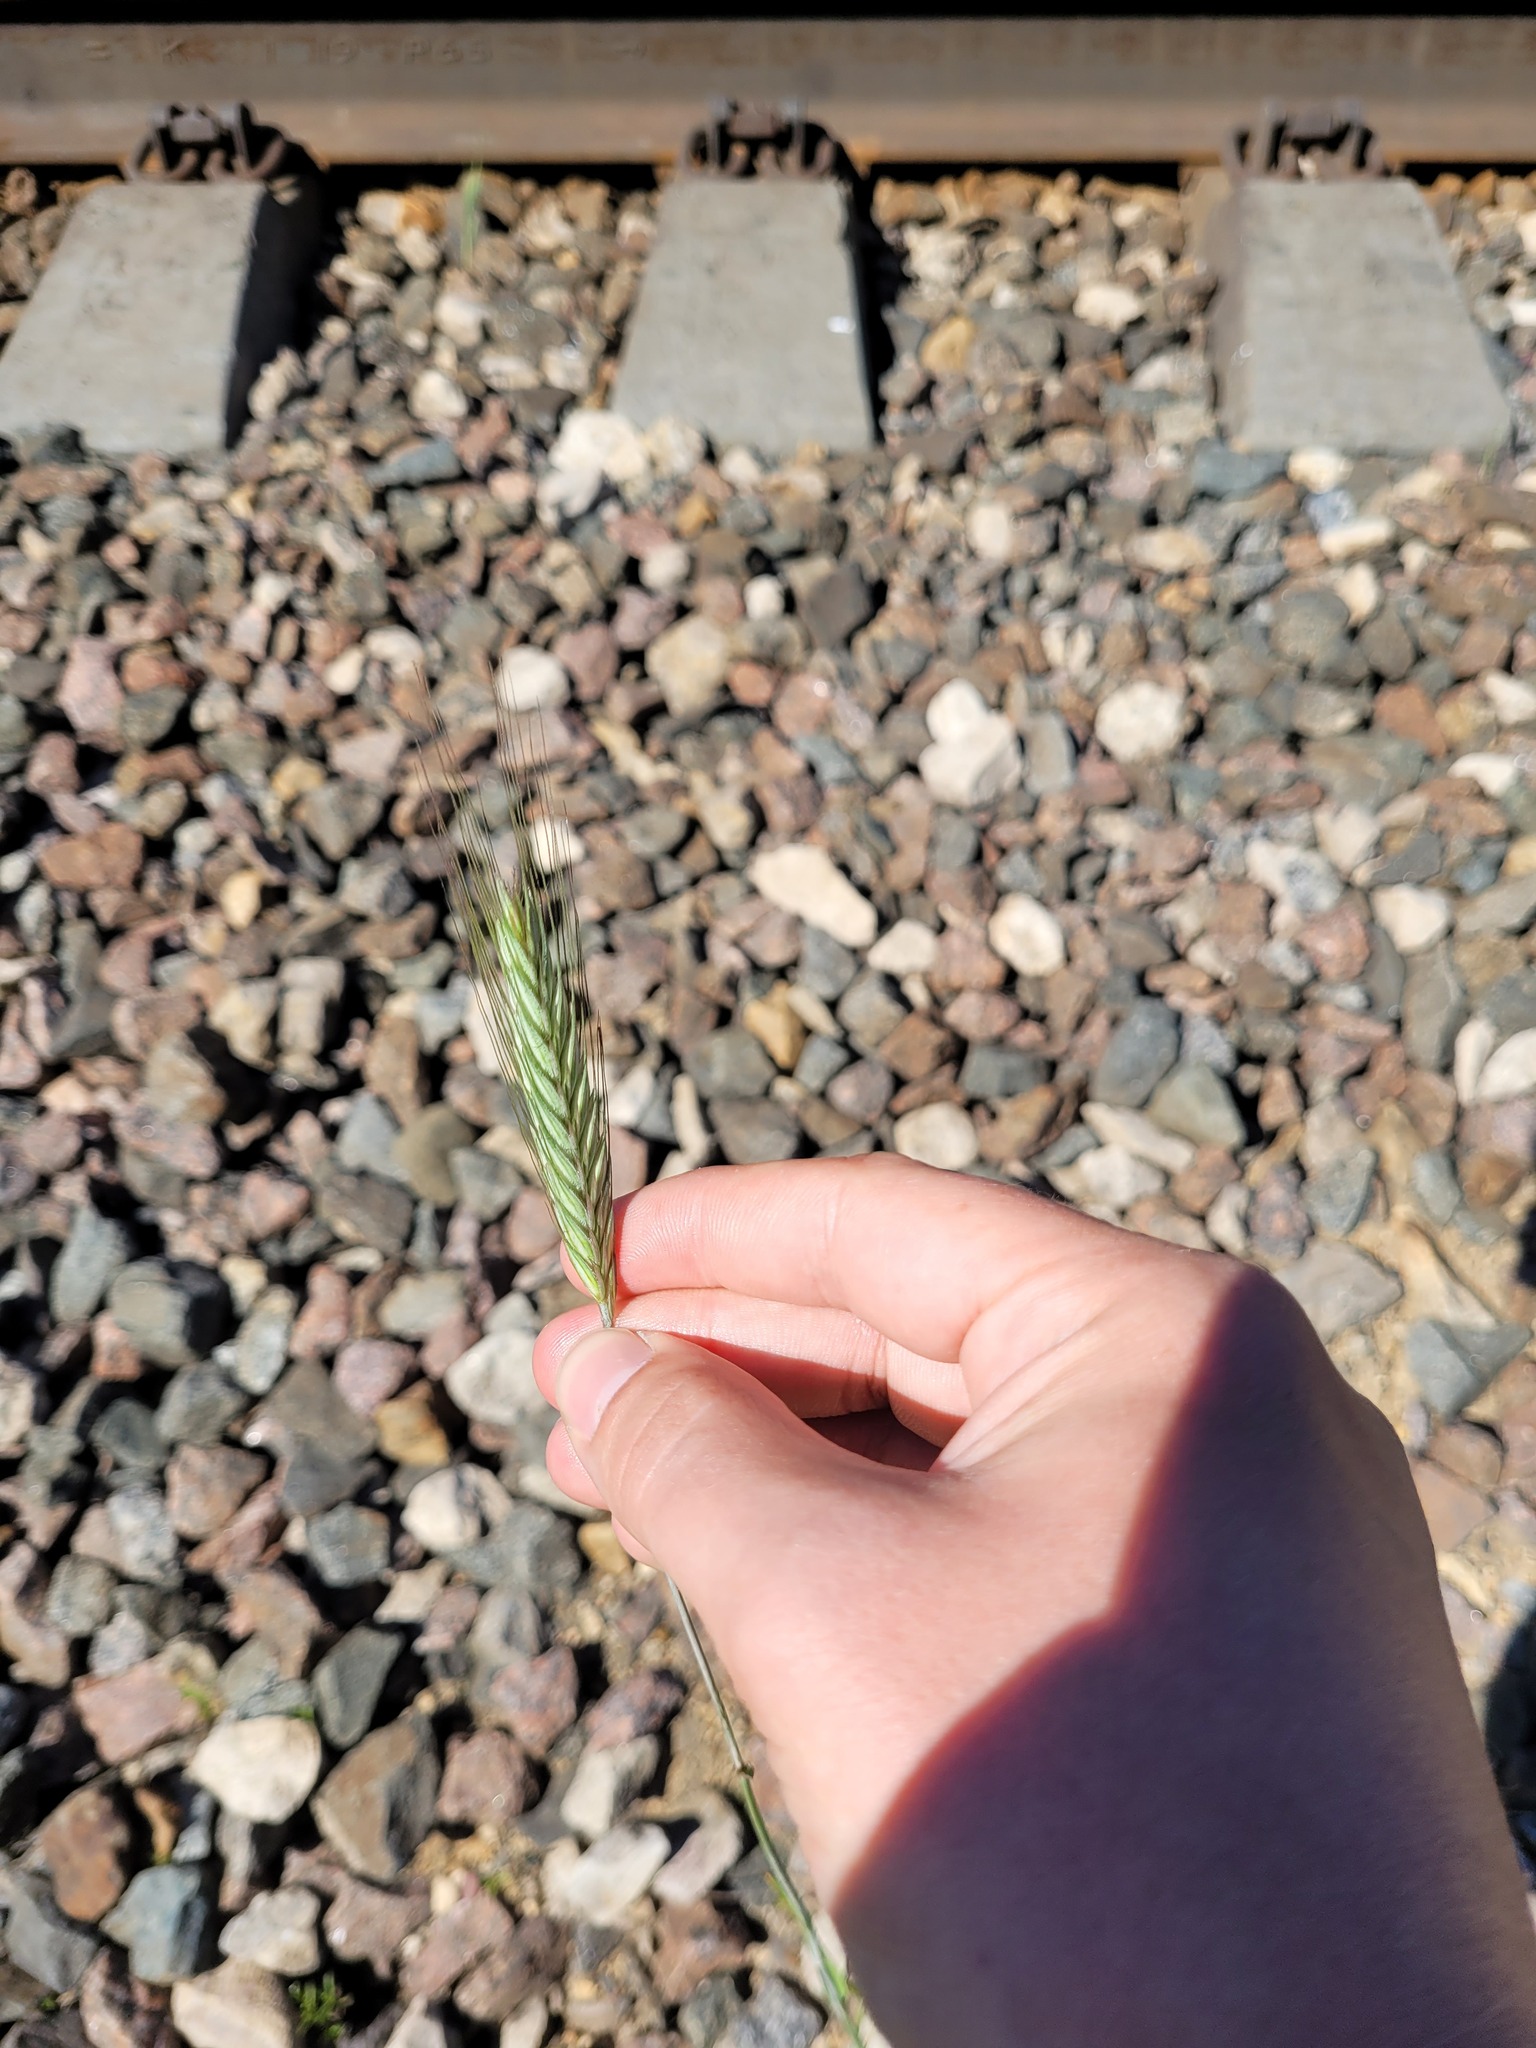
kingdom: Plantae
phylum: Tracheophyta
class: Liliopsida
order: Poales
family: Poaceae
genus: Secale
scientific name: Secale cereale
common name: Rye
